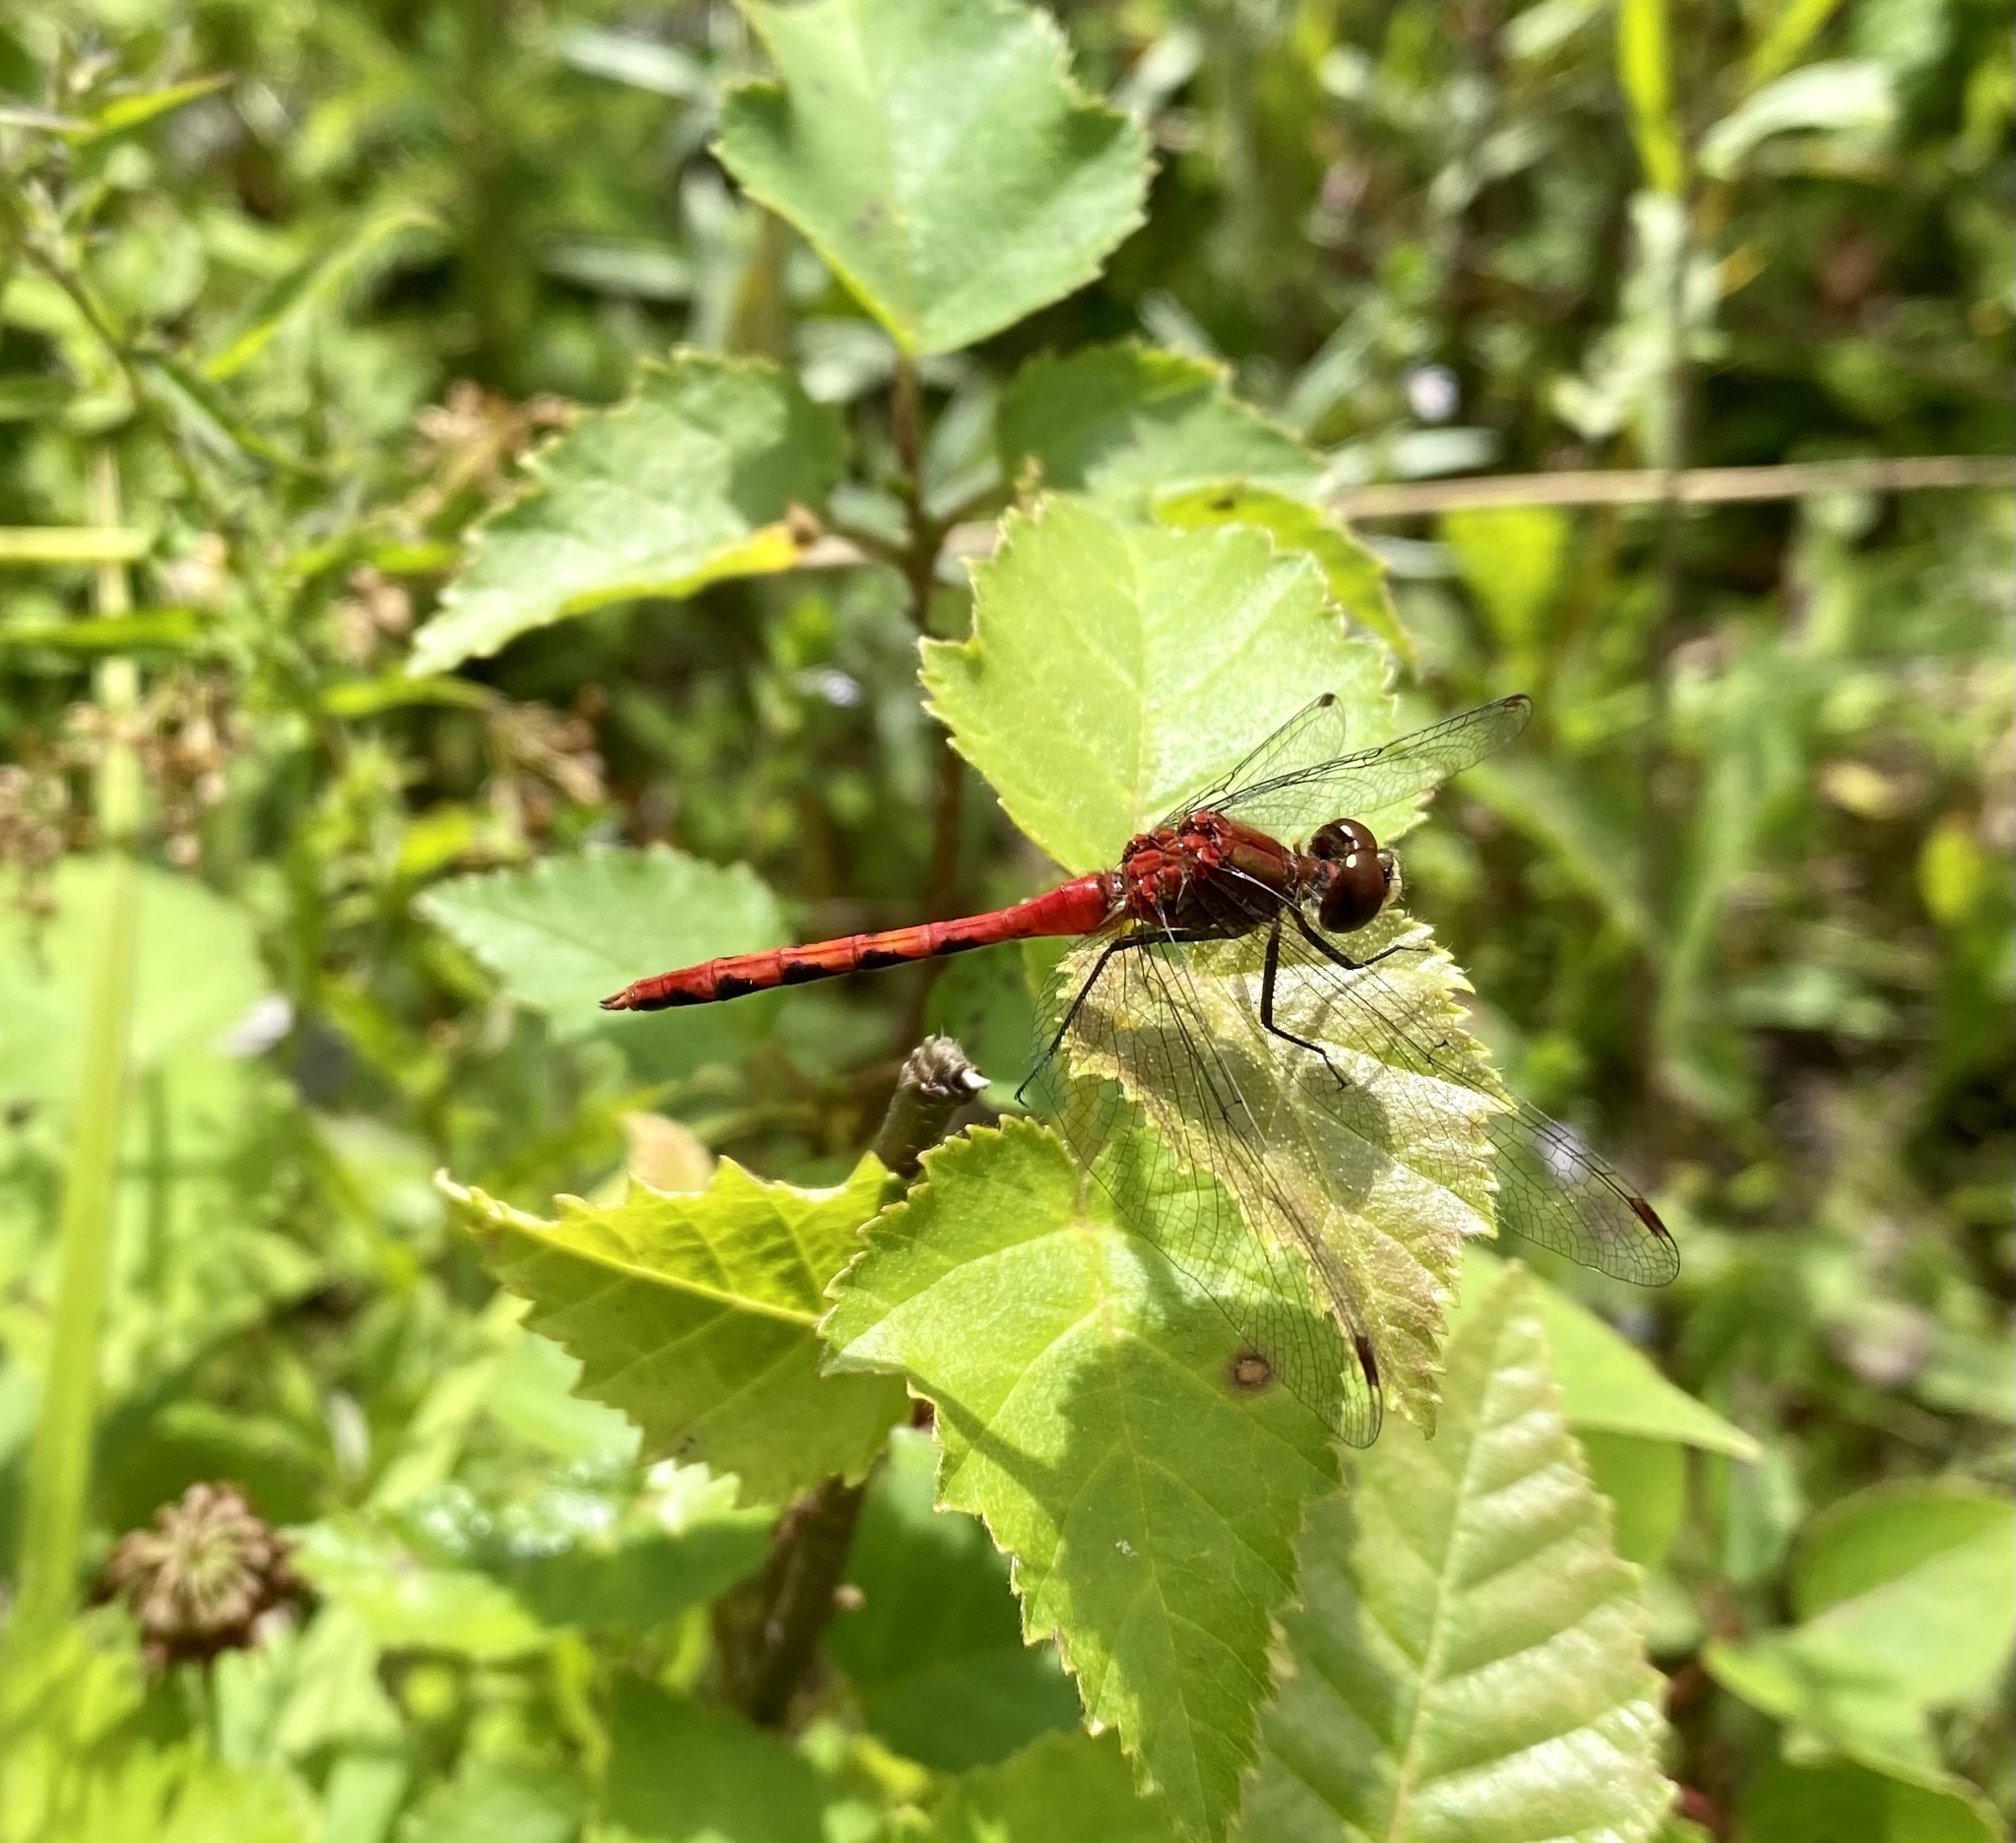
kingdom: Animalia
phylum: Arthropoda
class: Insecta
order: Odonata
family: Libellulidae
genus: Sympetrum
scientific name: Sympetrum obtrusum
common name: White-faced meadowhawk
